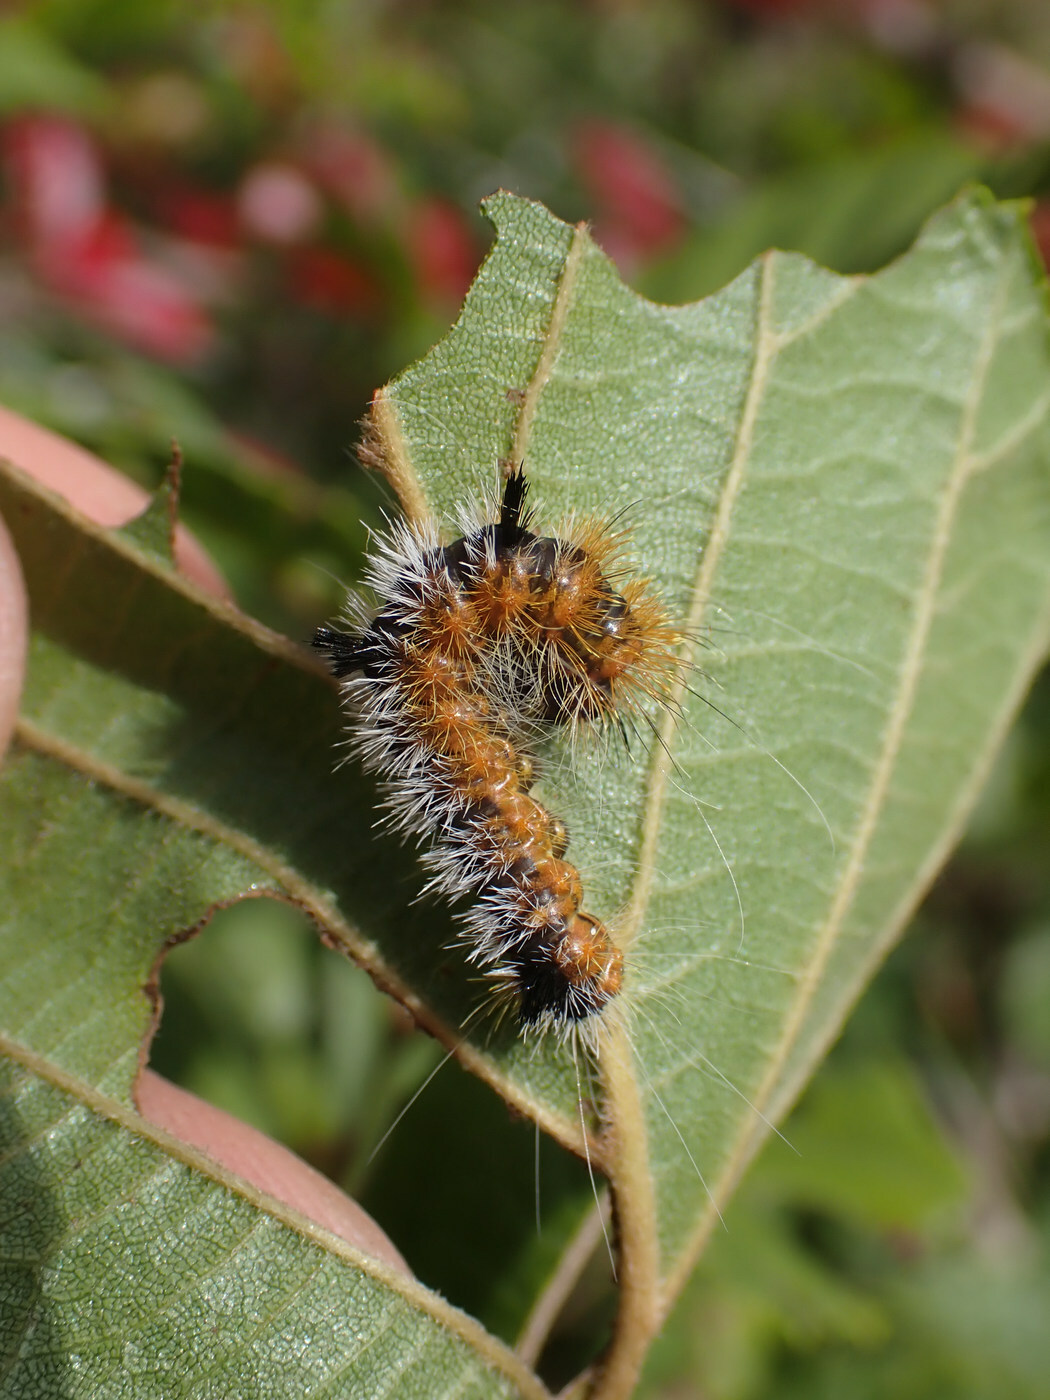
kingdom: Animalia
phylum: Arthropoda
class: Insecta
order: Lepidoptera
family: Noctuidae
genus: Acronicta
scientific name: Acronicta hastulifera
